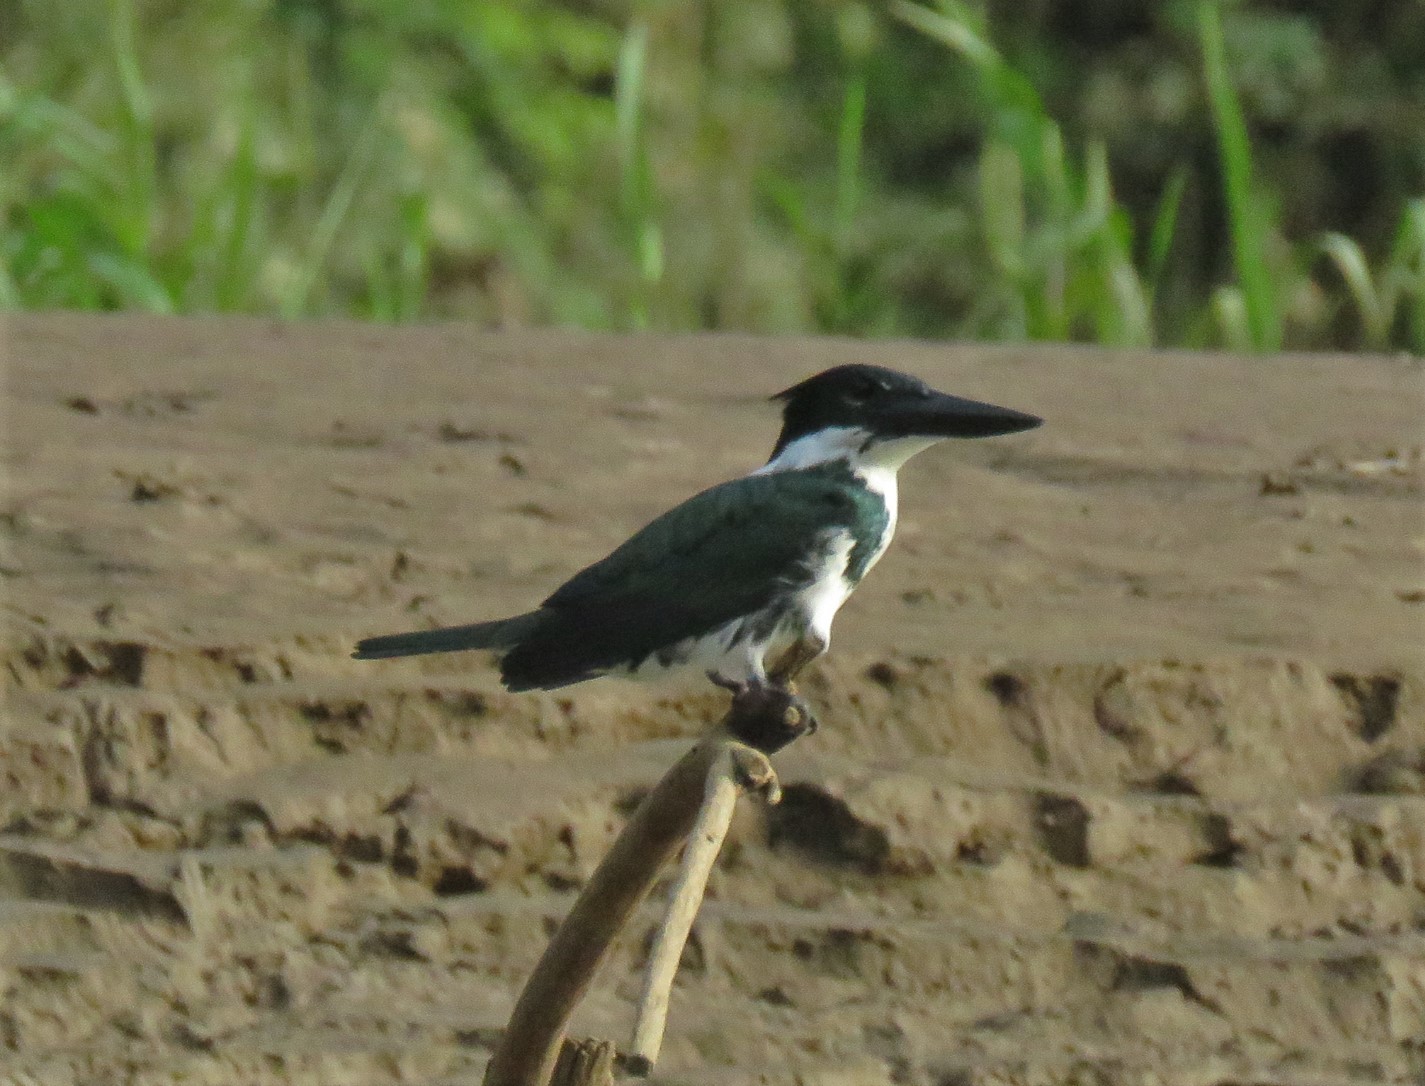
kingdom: Animalia
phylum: Chordata
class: Aves
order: Coraciiformes
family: Alcedinidae
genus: Chloroceryle
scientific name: Chloroceryle amazona
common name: Amazon kingfisher
